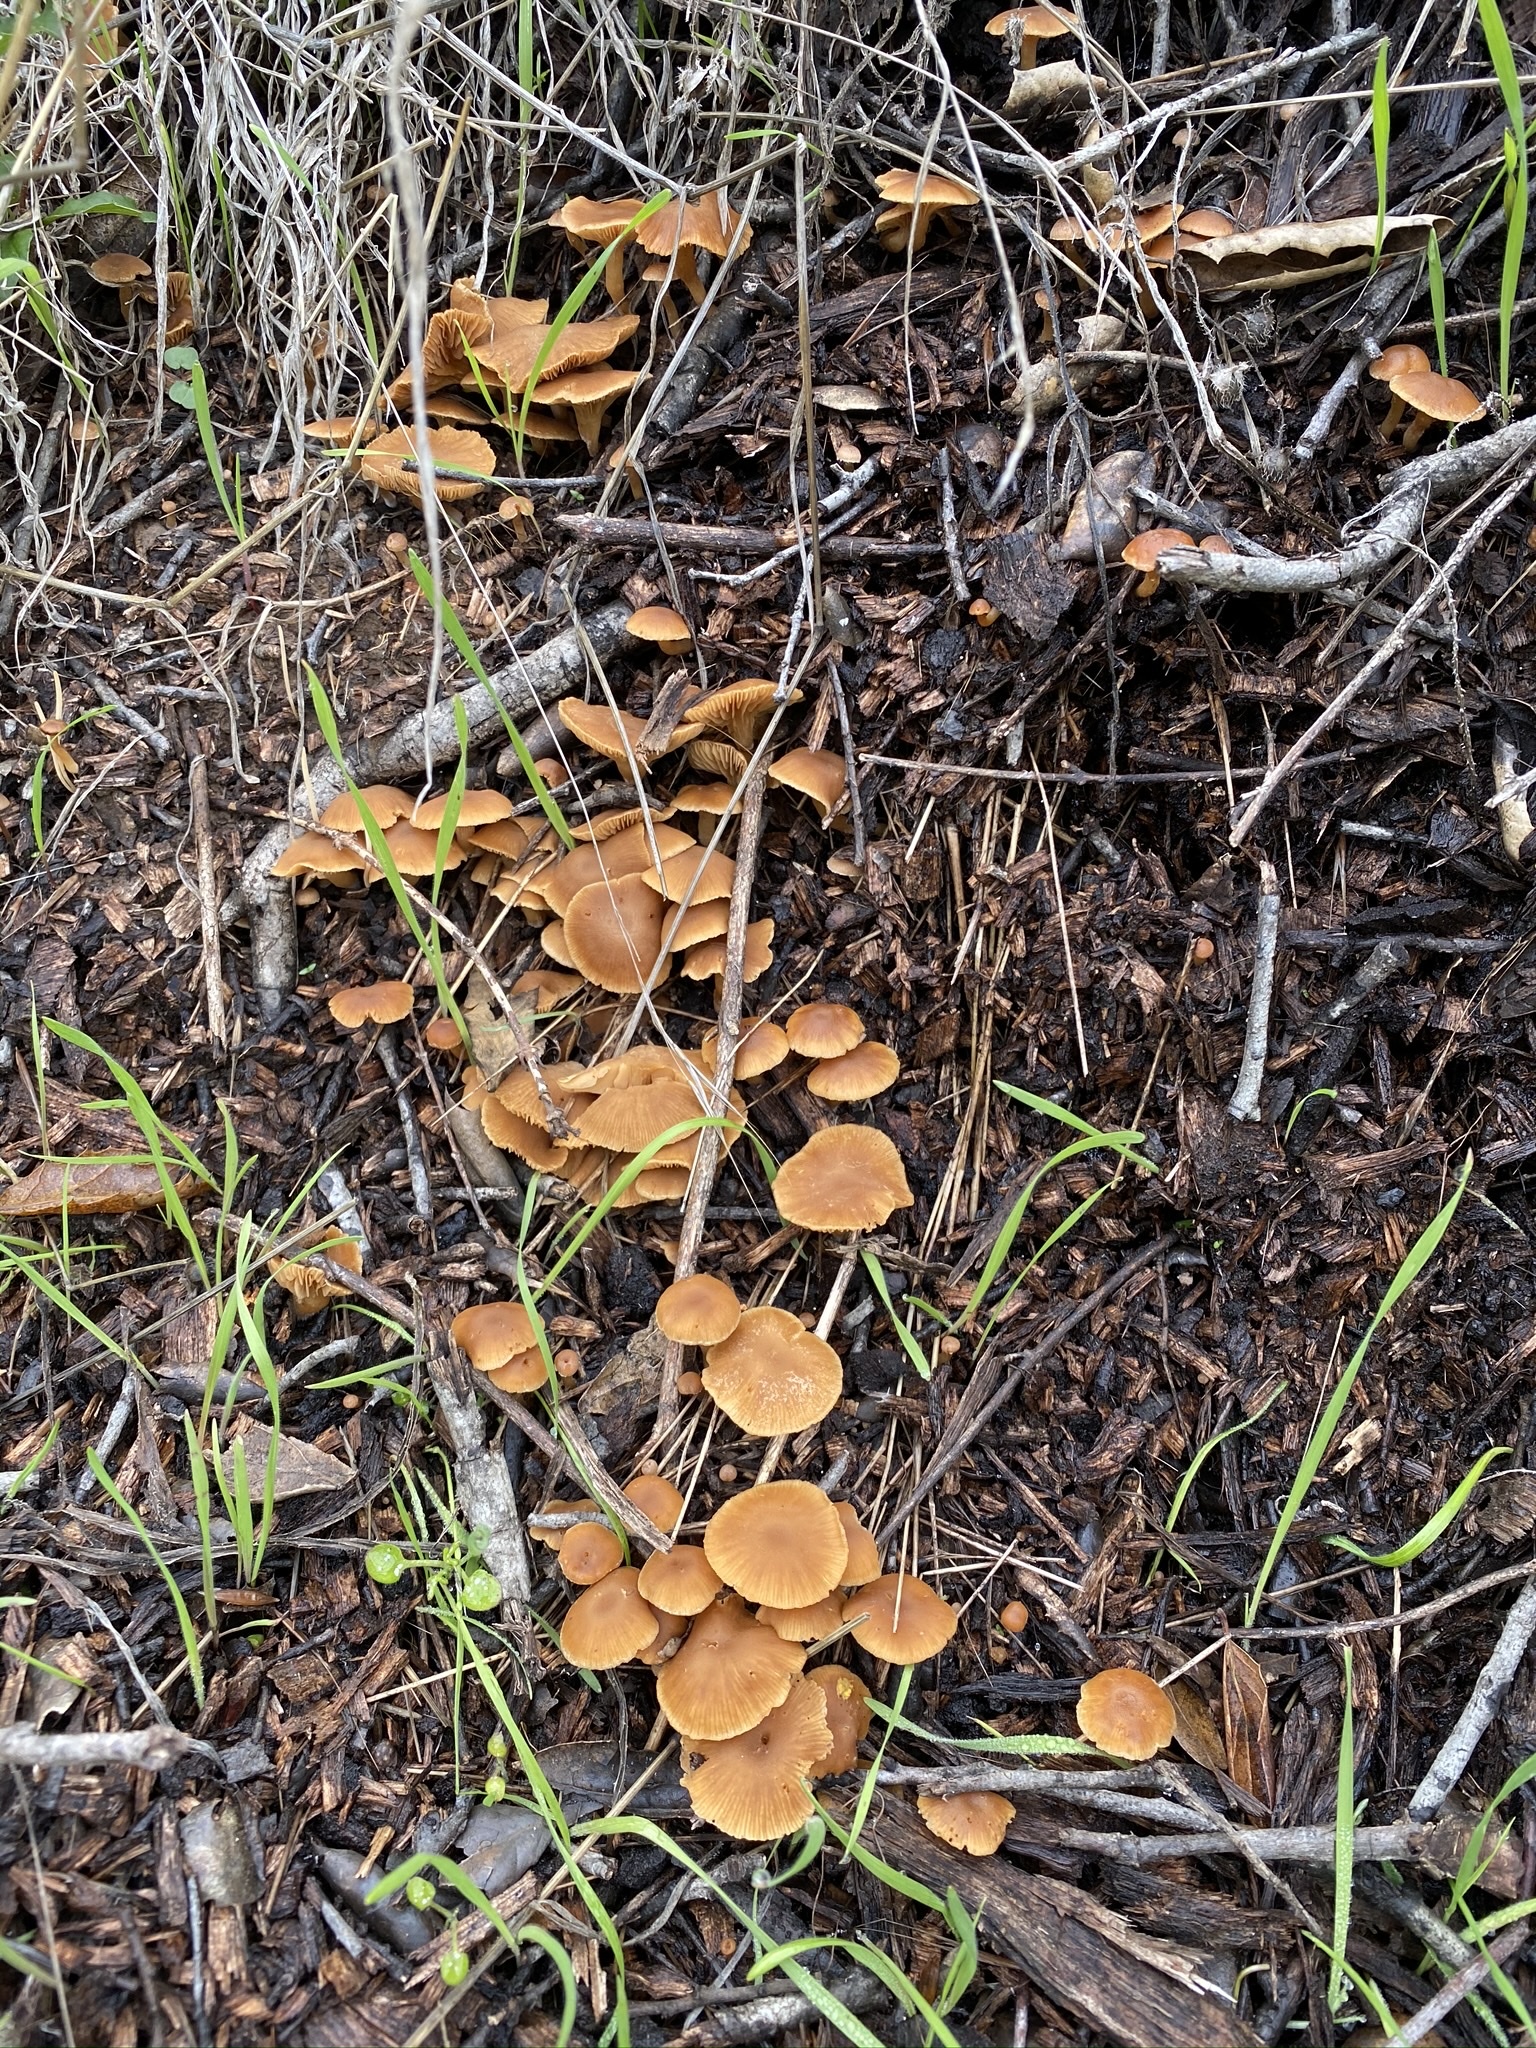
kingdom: Fungi
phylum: Basidiomycota
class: Agaricomycetes
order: Agaricales
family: Tubariaceae
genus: Tubaria
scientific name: Tubaria furfuracea
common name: Scurfy twiglet
